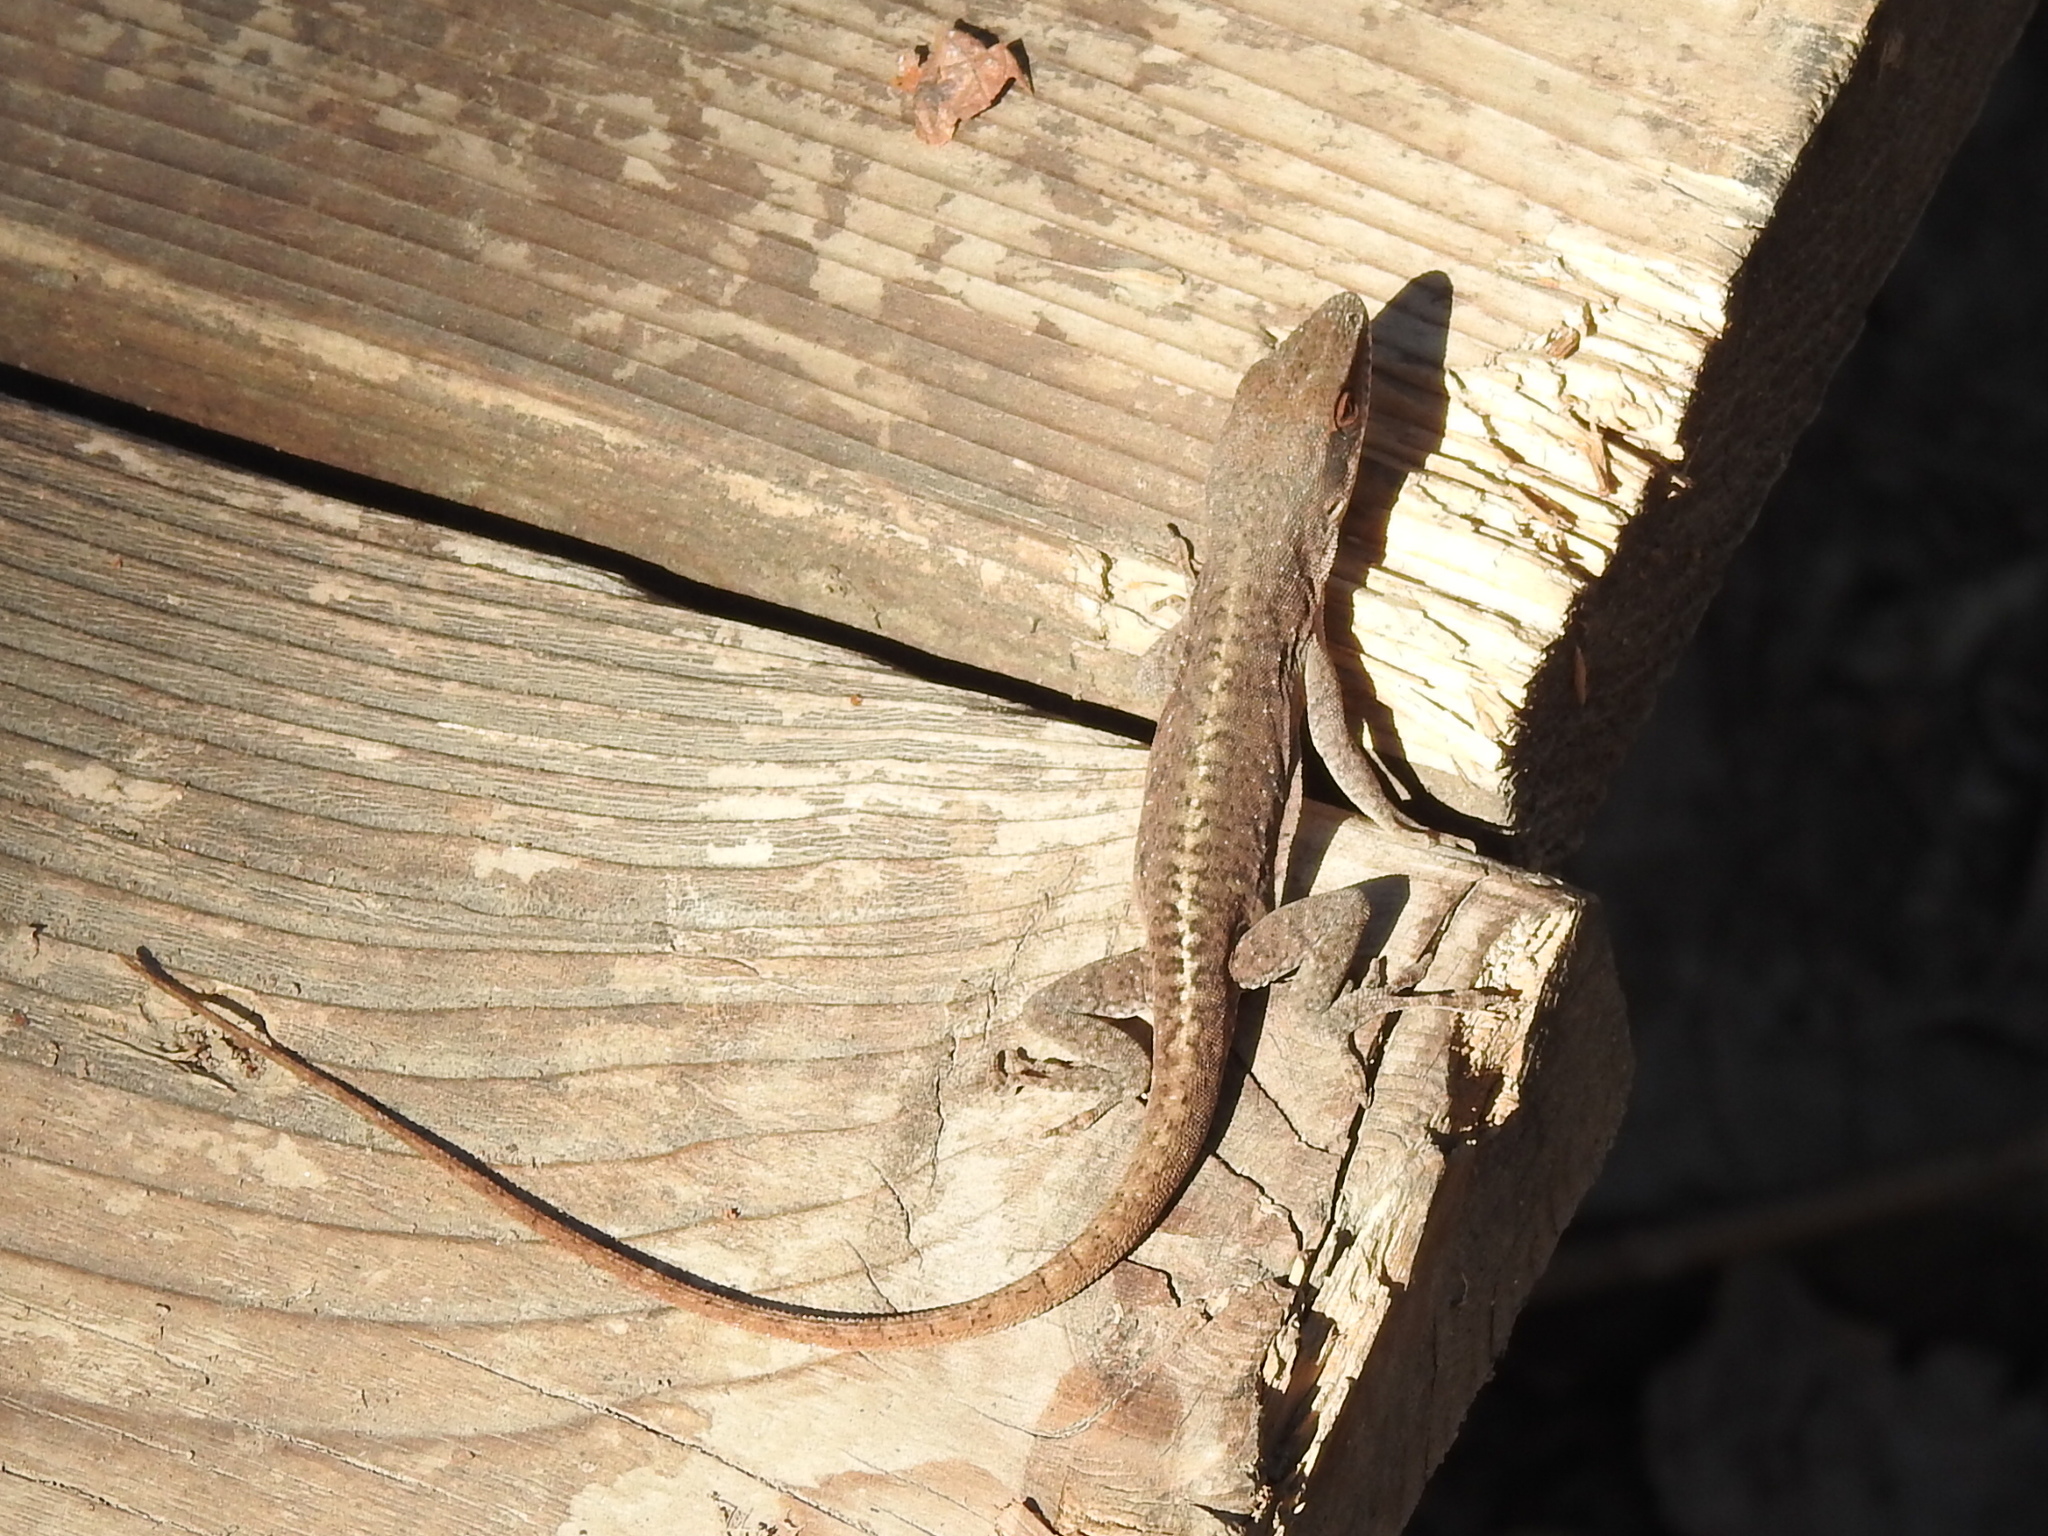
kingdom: Animalia
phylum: Chordata
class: Squamata
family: Dactyloidae
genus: Anolis
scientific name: Anolis carolinensis
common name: Green anole
